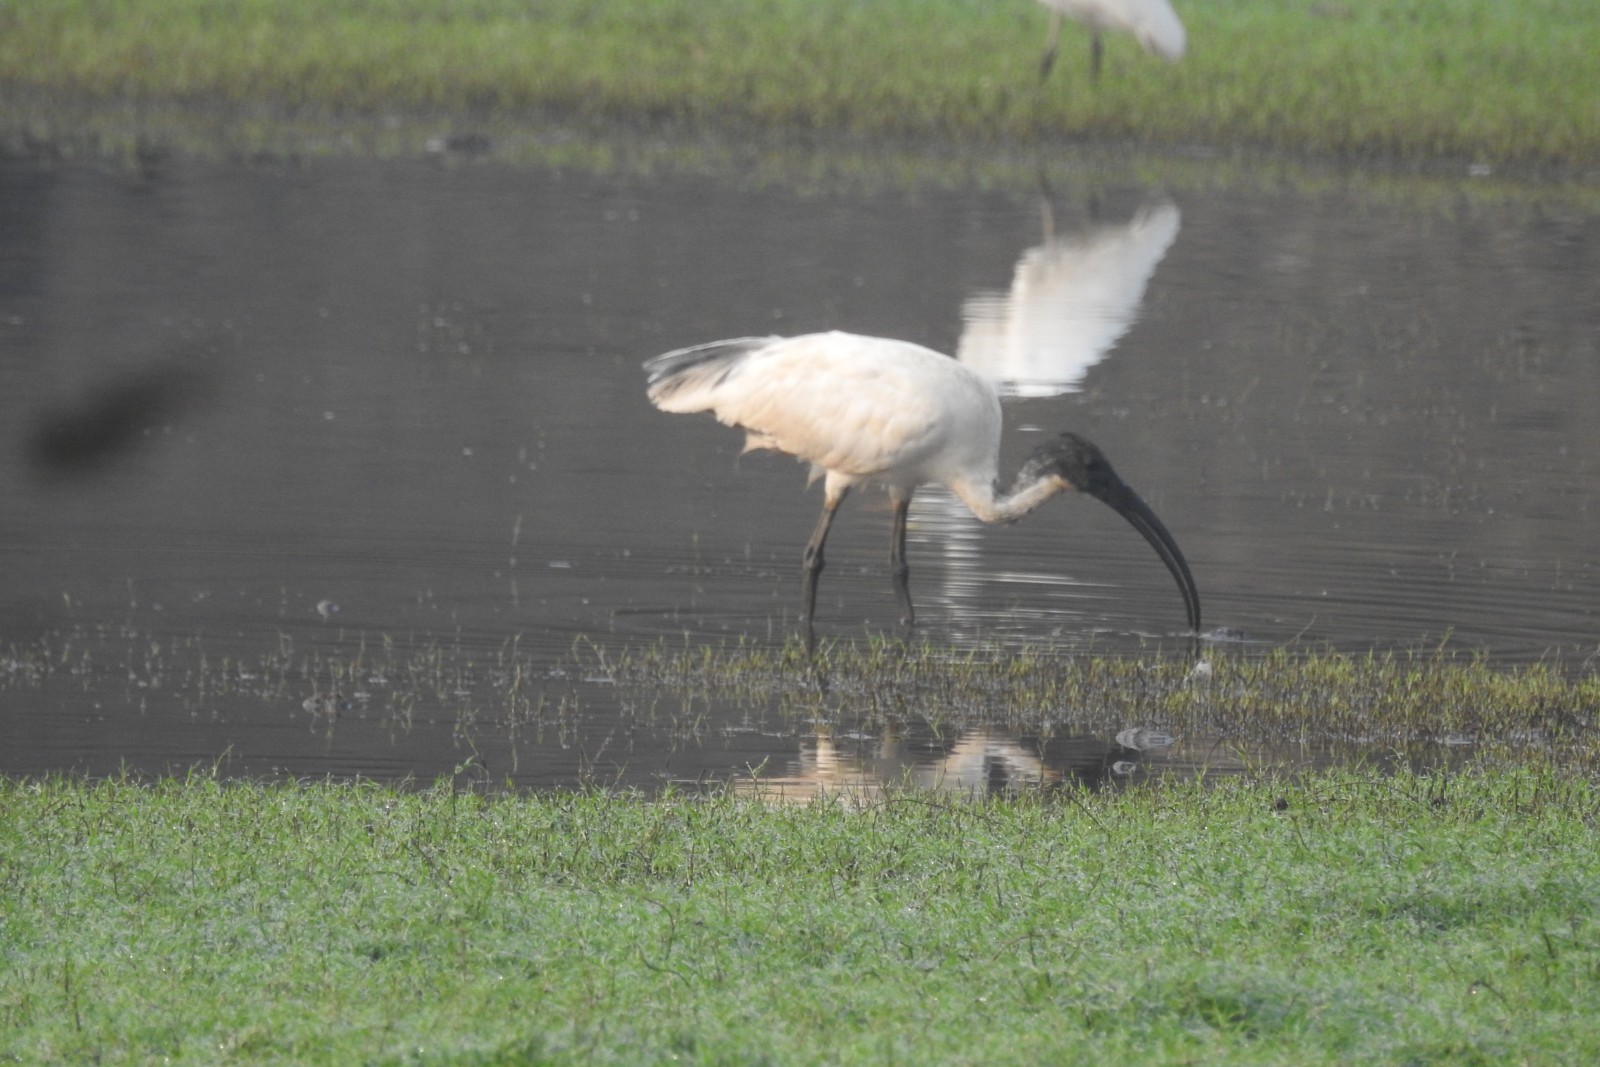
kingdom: Animalia
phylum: Chordata
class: Aves
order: Pelecaniformes
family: Threskiornithidae
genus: Threskiornis
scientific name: Threskiornis melanocephalus
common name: Black-headed ibis
